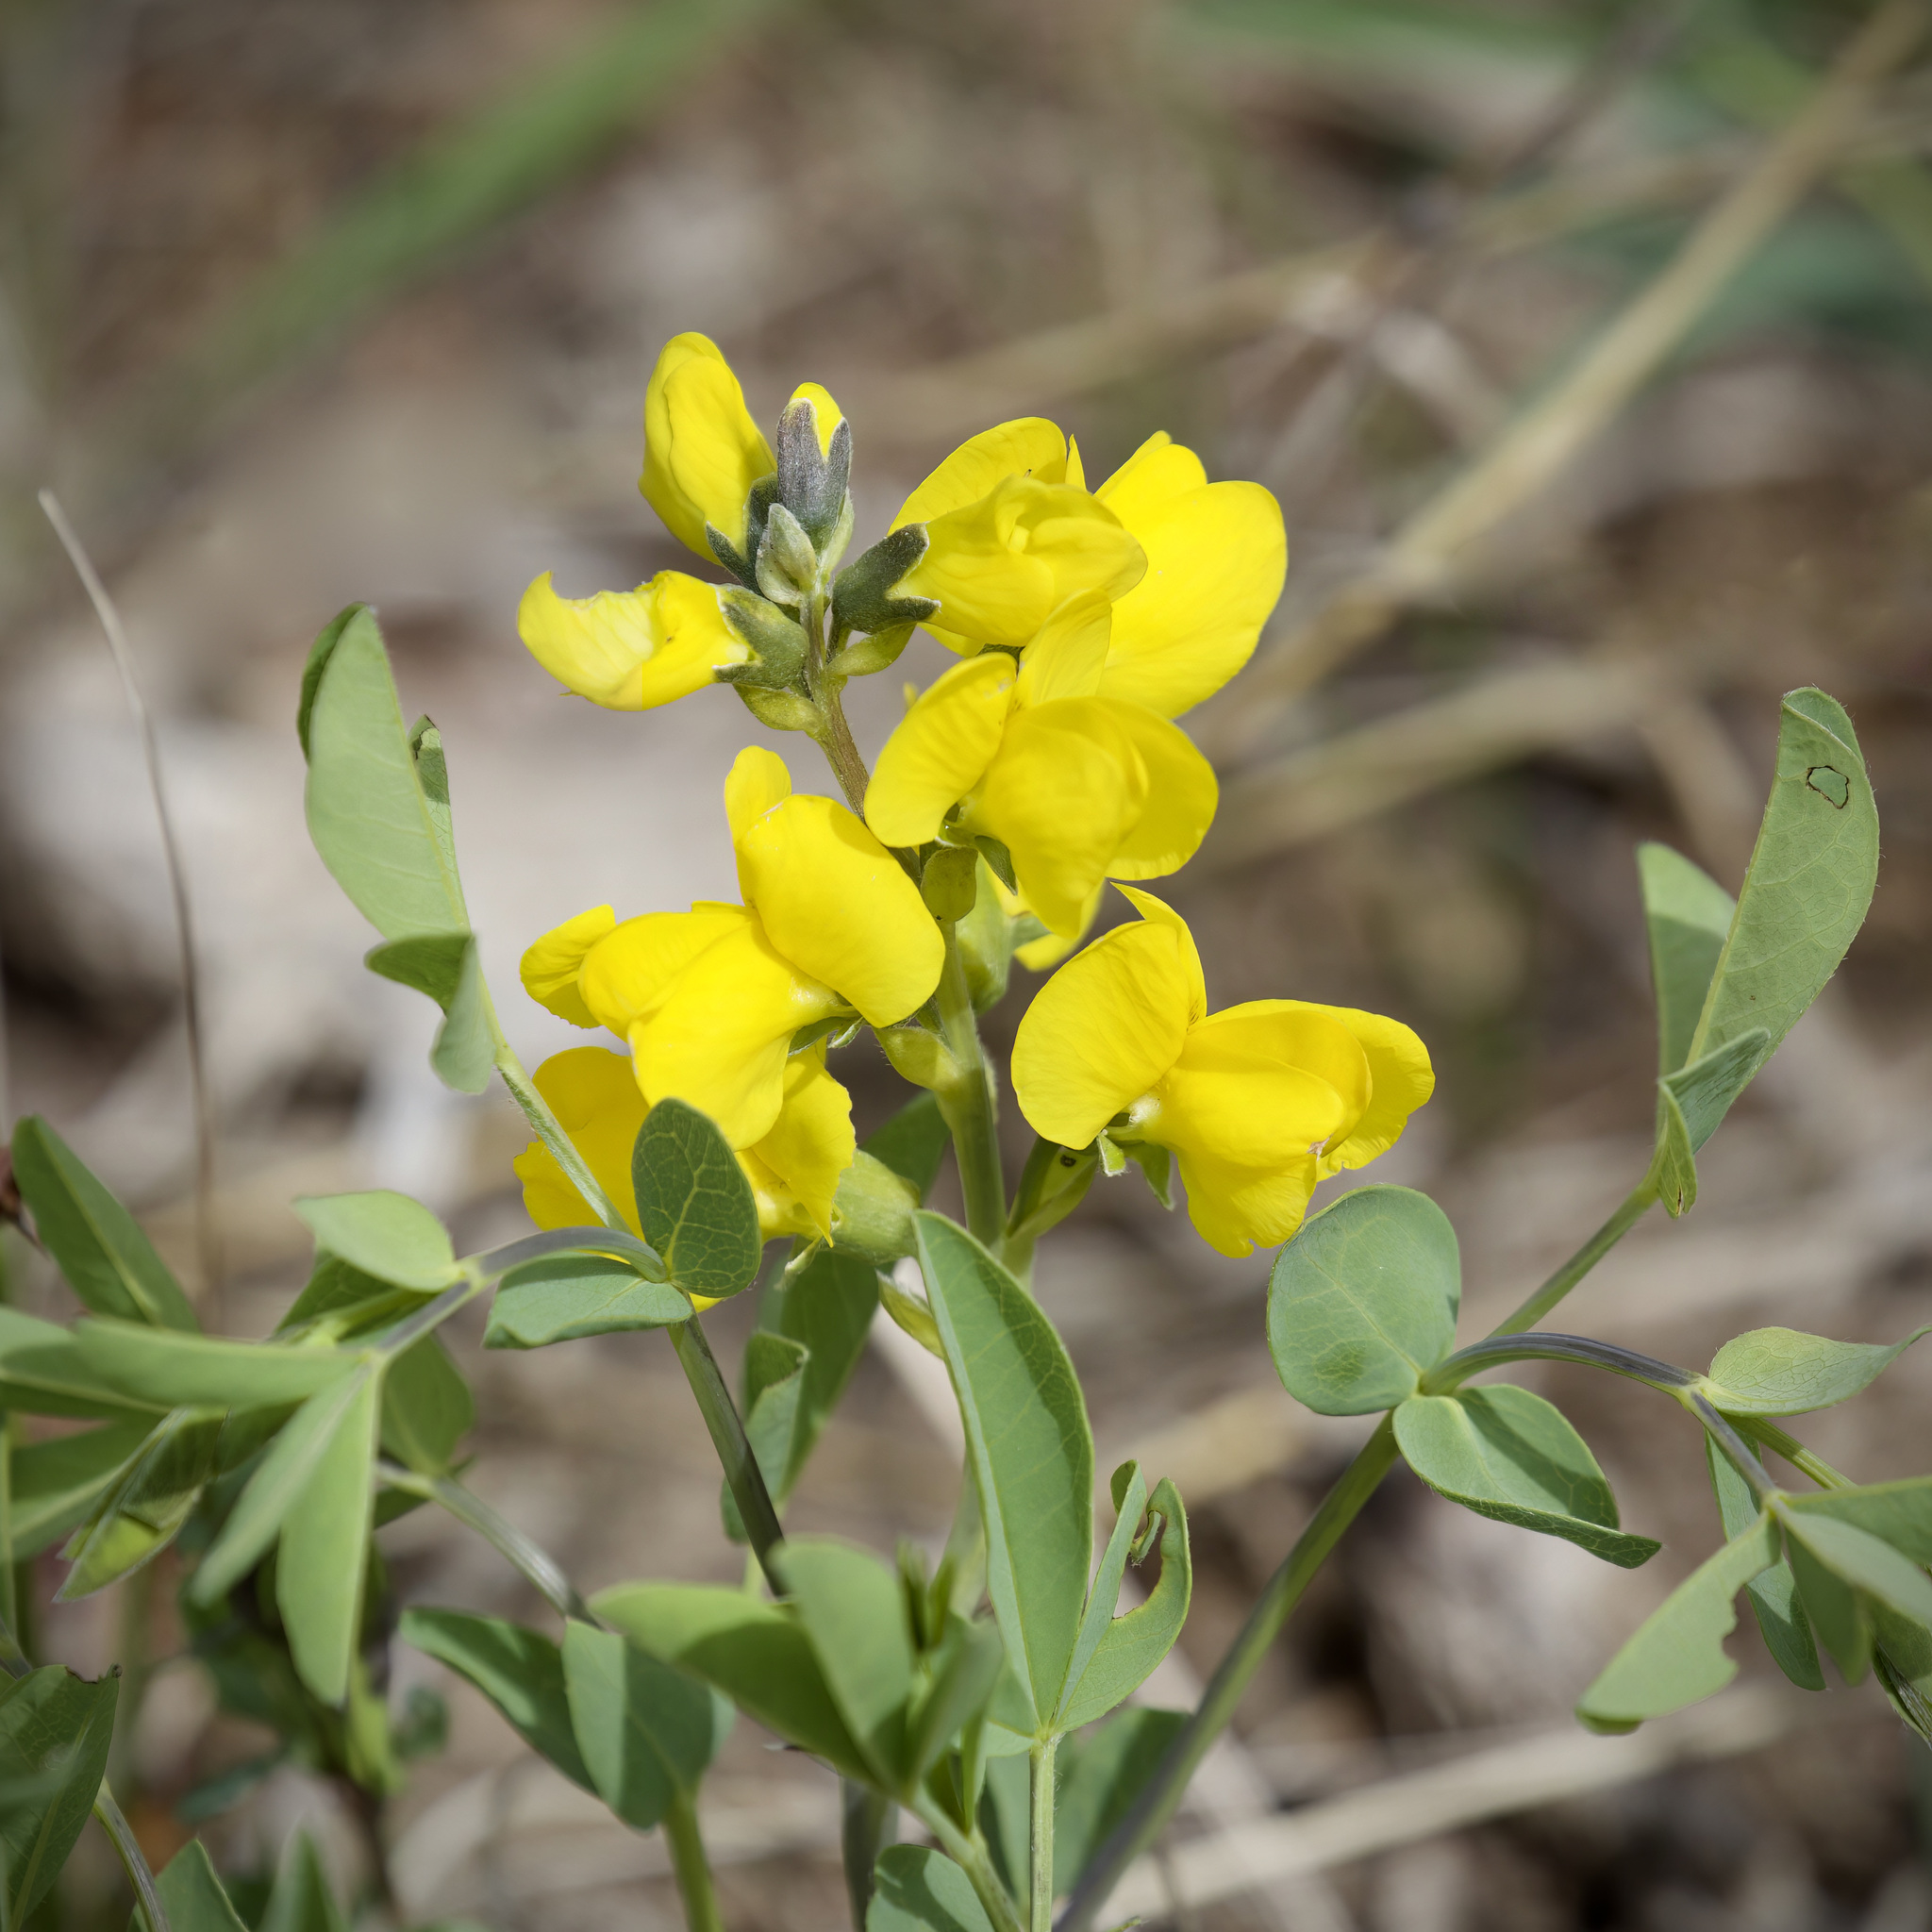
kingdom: Plantae
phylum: Tracheophyta
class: Magnoliopsida
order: Fabales
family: Fabaceae
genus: Thermopsis
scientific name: Thermopsis rhombifolia
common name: Circle-pod-pea
